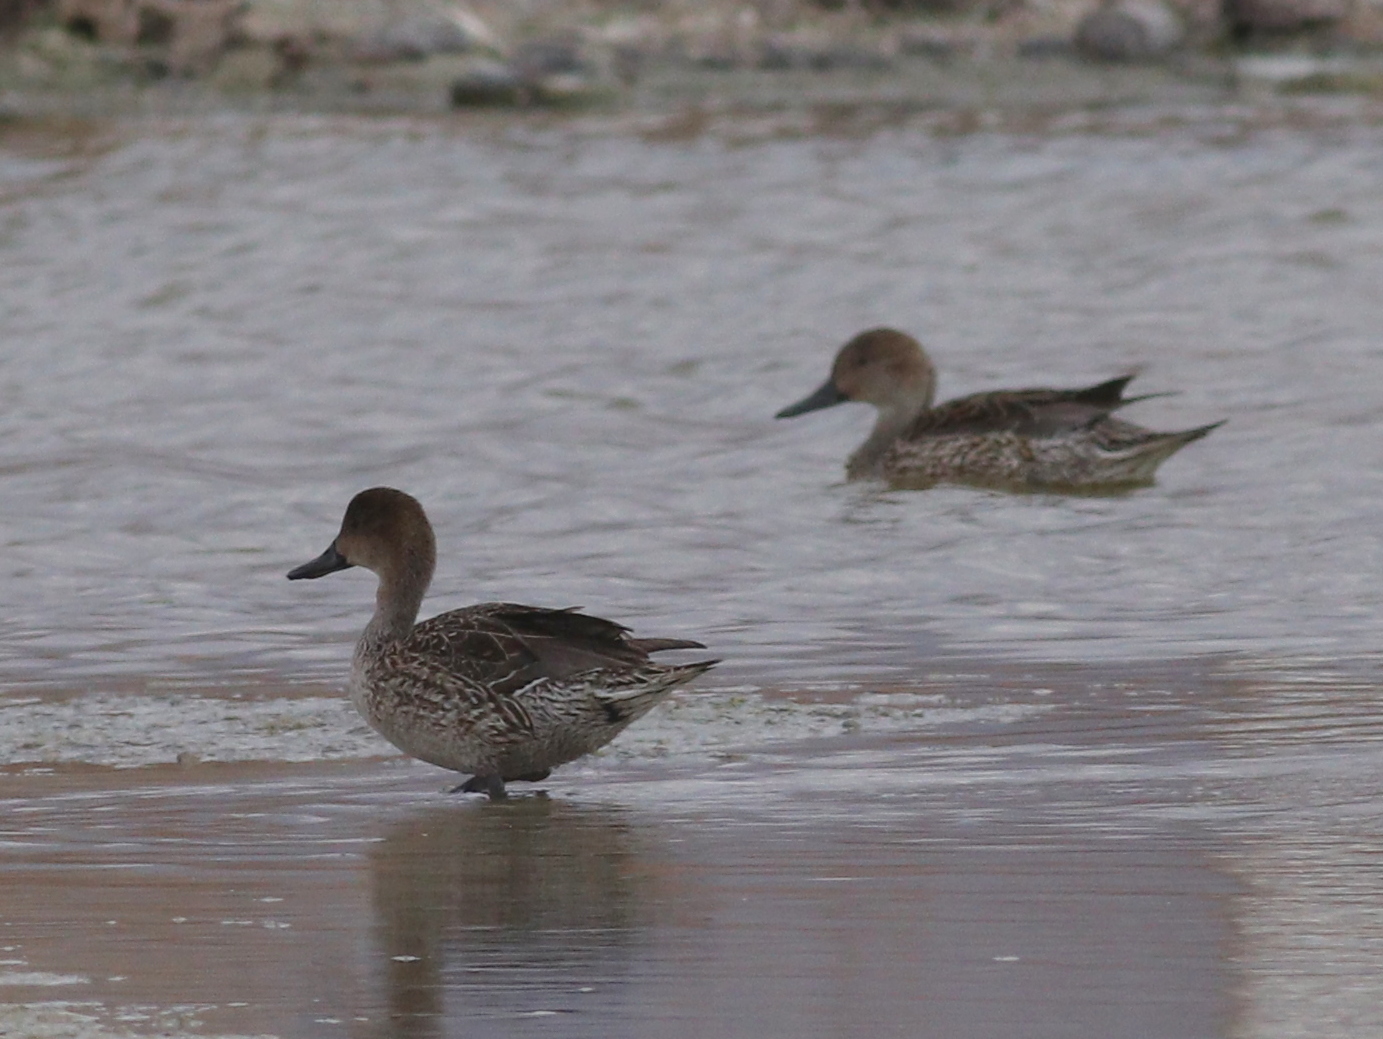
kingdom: Animalia
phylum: Chordata
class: Aves
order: Anseriformes
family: Anatidae
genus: Anas
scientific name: Anas acuta
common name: Northern pintail
